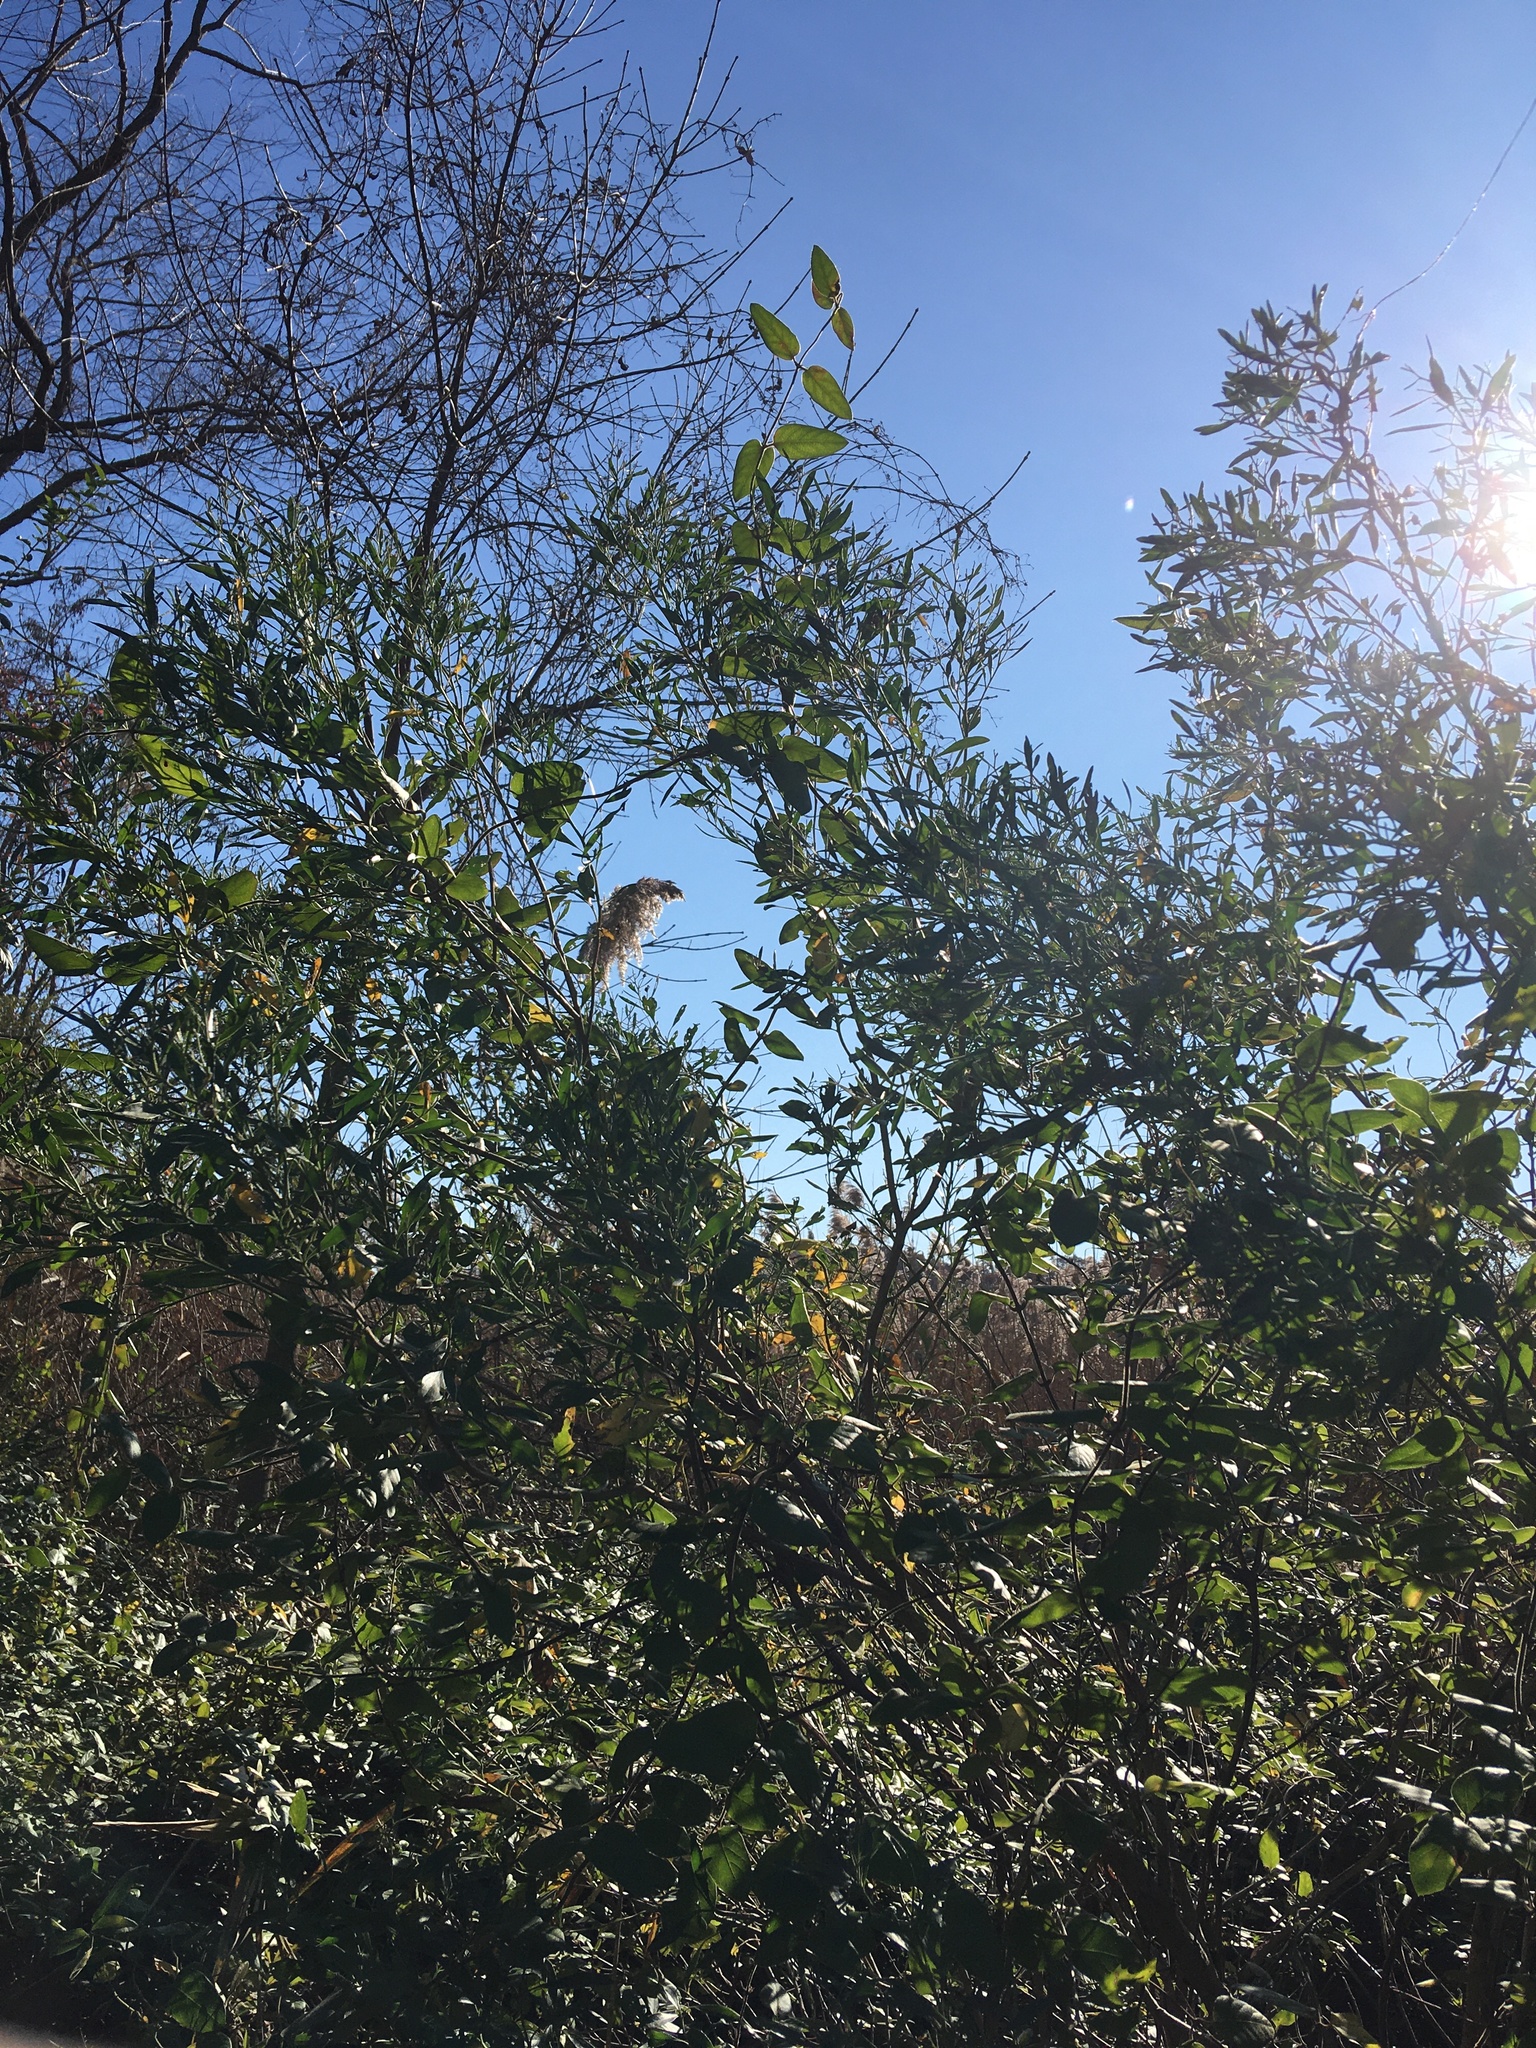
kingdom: Plantae
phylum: Tracheophyta
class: Magnoliopsida
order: Asterales
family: Asteraceae
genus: Baccharis
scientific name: Baccharis halimifolia
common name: Eastern baccharis
